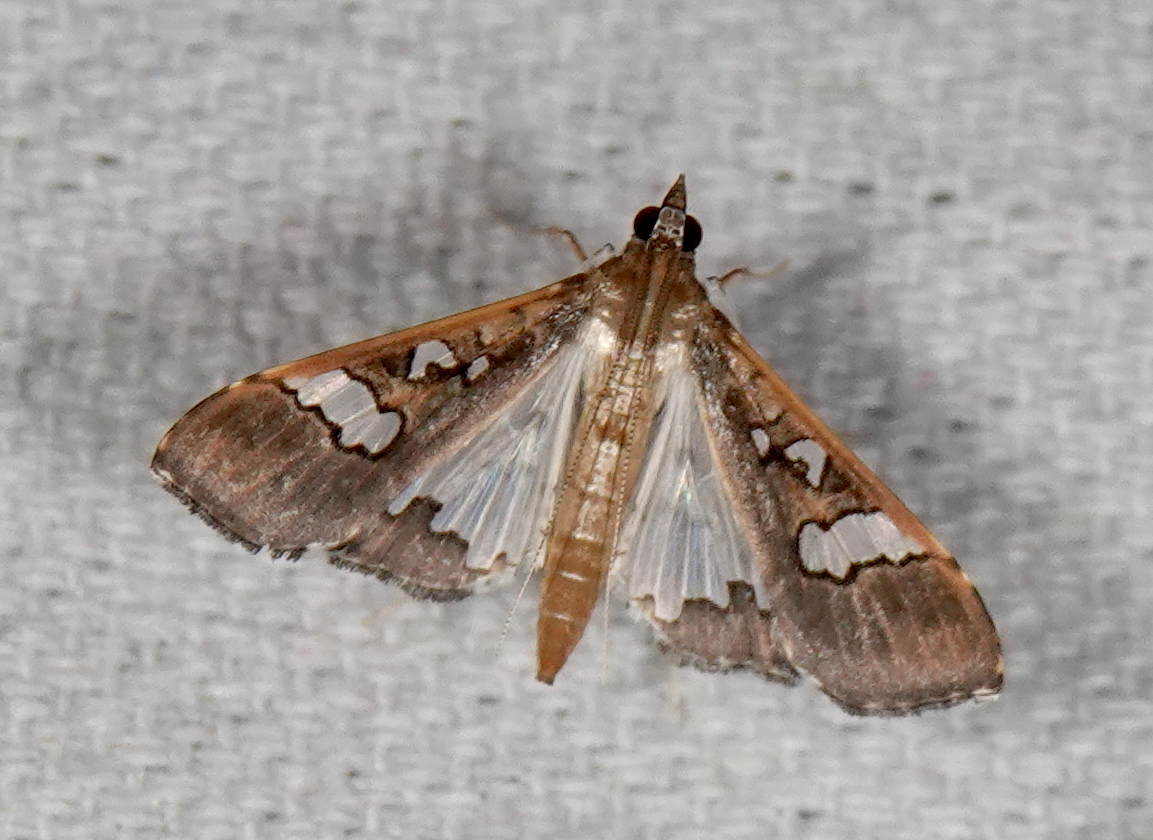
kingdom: Animalia
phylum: Arthropoda
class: Insecta
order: Lepidoptera
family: Crambidae
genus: Maruca
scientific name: Maruca vitrata
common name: Maruca pod borer
